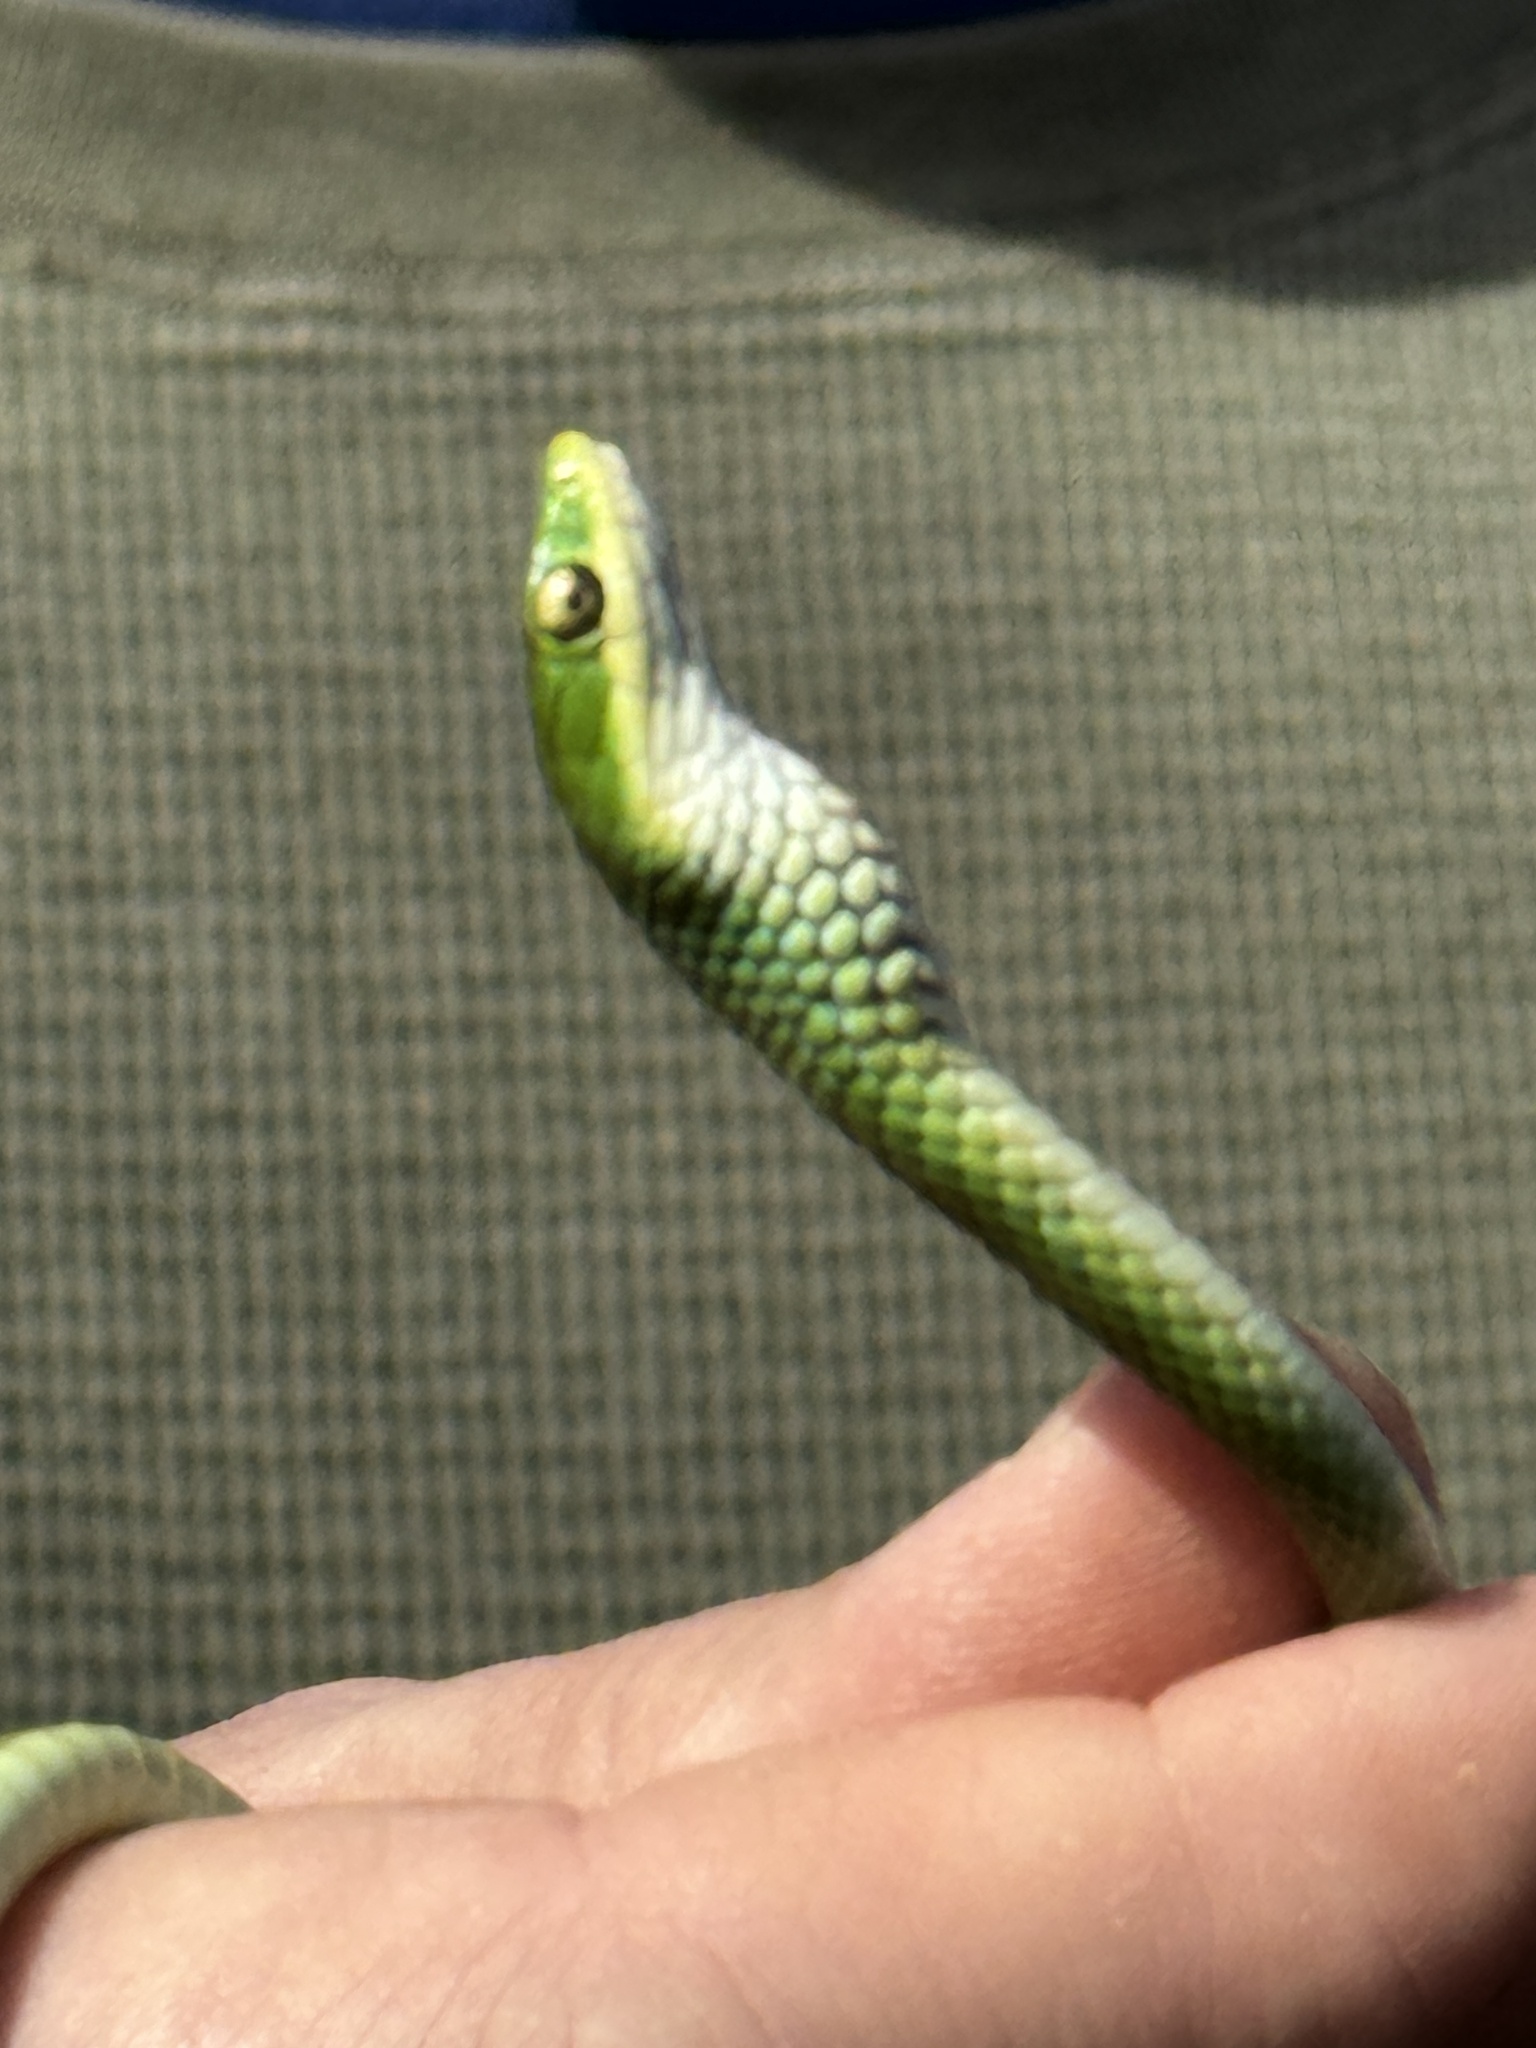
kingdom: Animalia
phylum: Chordata
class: Squamata
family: Colubridae
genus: Opheodrys
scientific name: Opheodrys aestivus
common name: Rough greensnake
